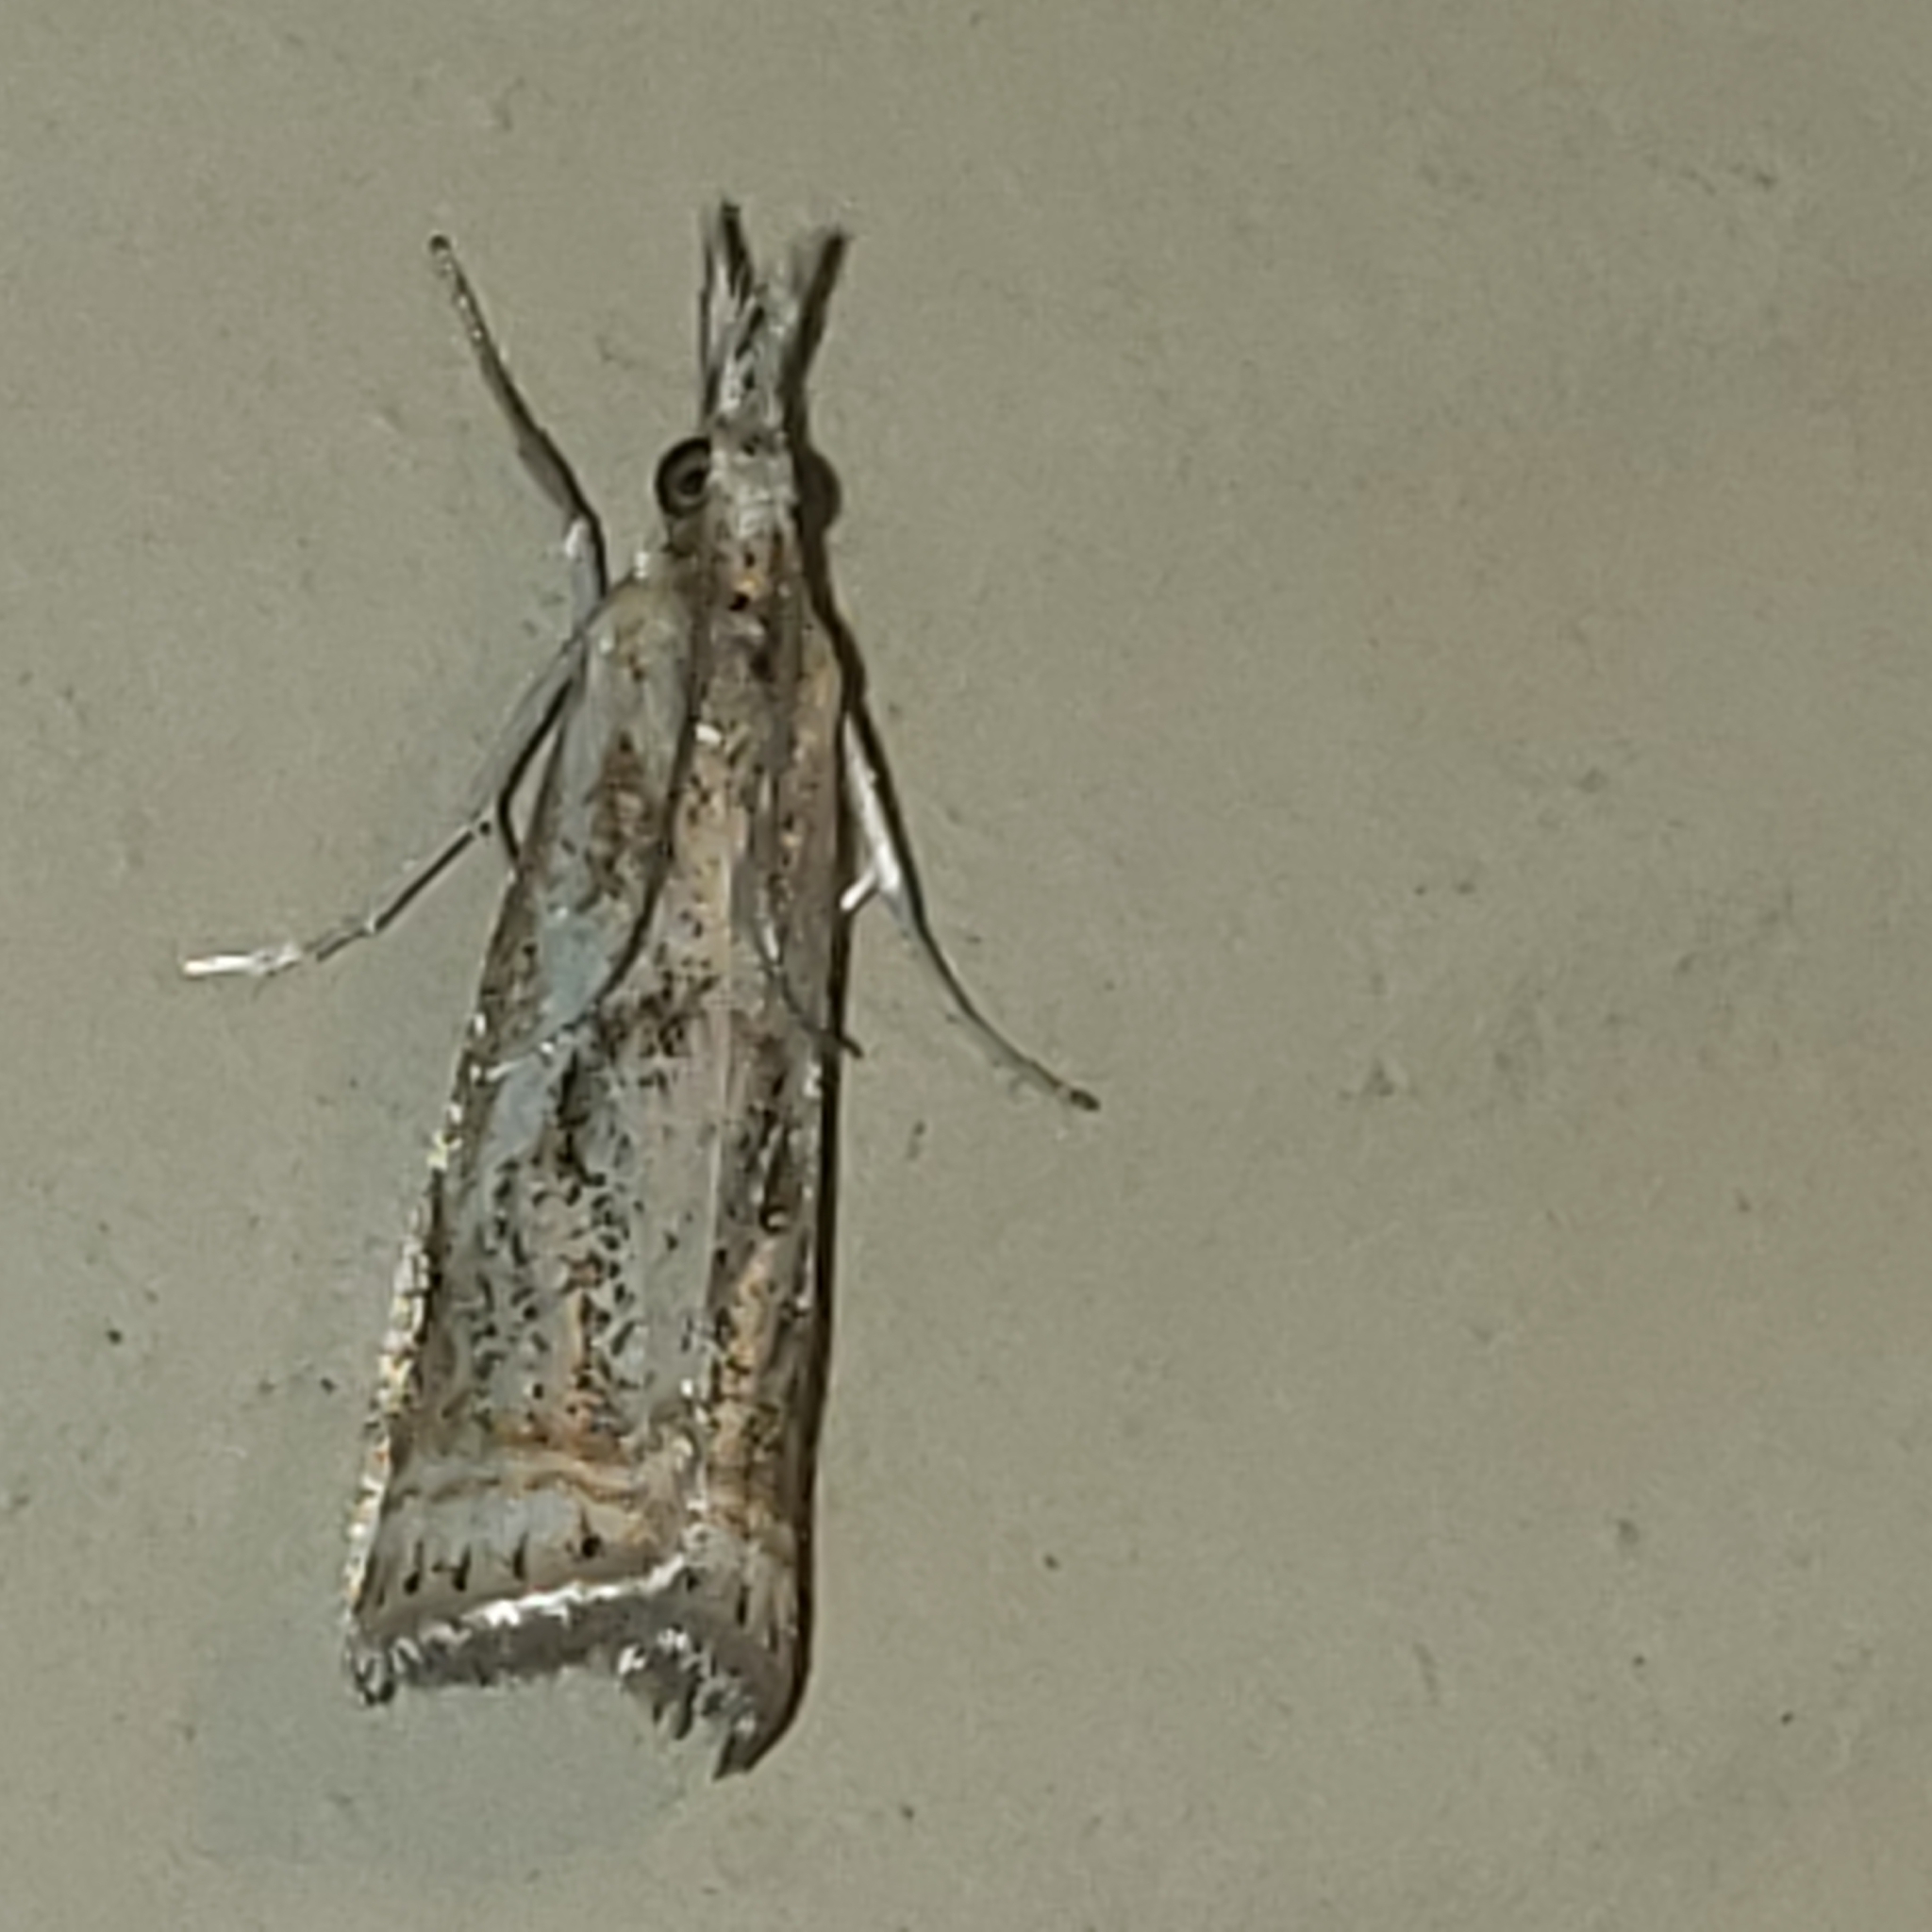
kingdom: Animalia
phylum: Arthropoda
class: Insecta
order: Lepidoptera
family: Crambidae
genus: Microcrambus
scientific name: Microcrambus elegans
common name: Elegant grass-veneer
